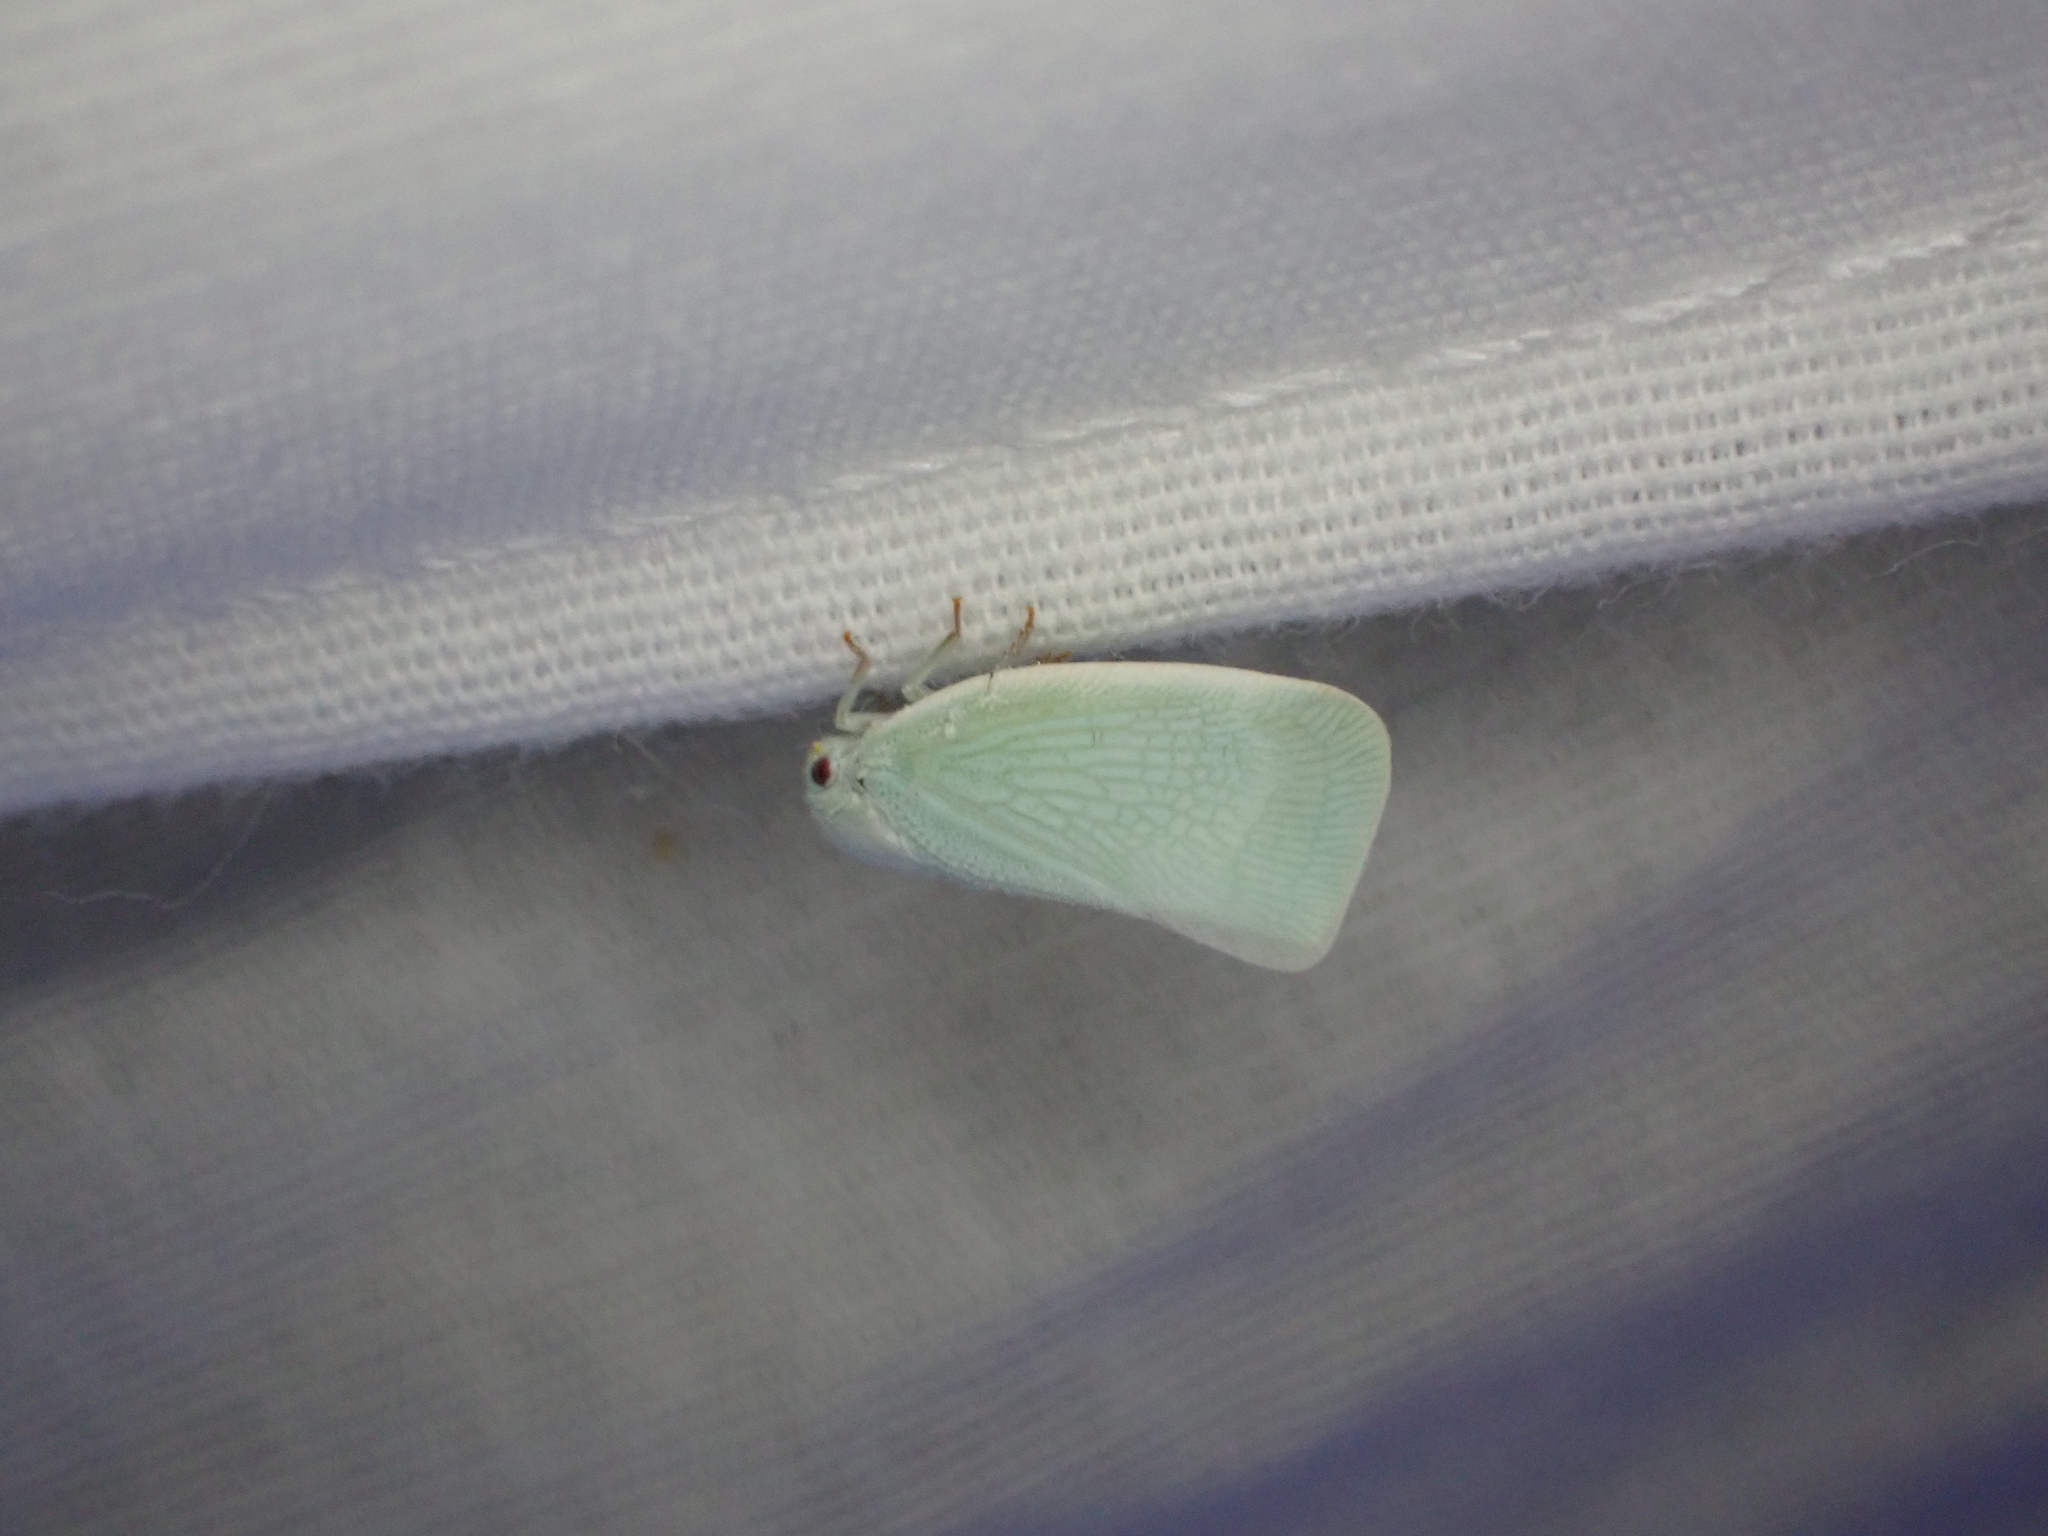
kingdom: Animalia
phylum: Arthropoda
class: Insecta
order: Hemiptera
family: Flatidae
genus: Flatormenis
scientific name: Flatormenis proxima
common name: Northern flatid planthopper
